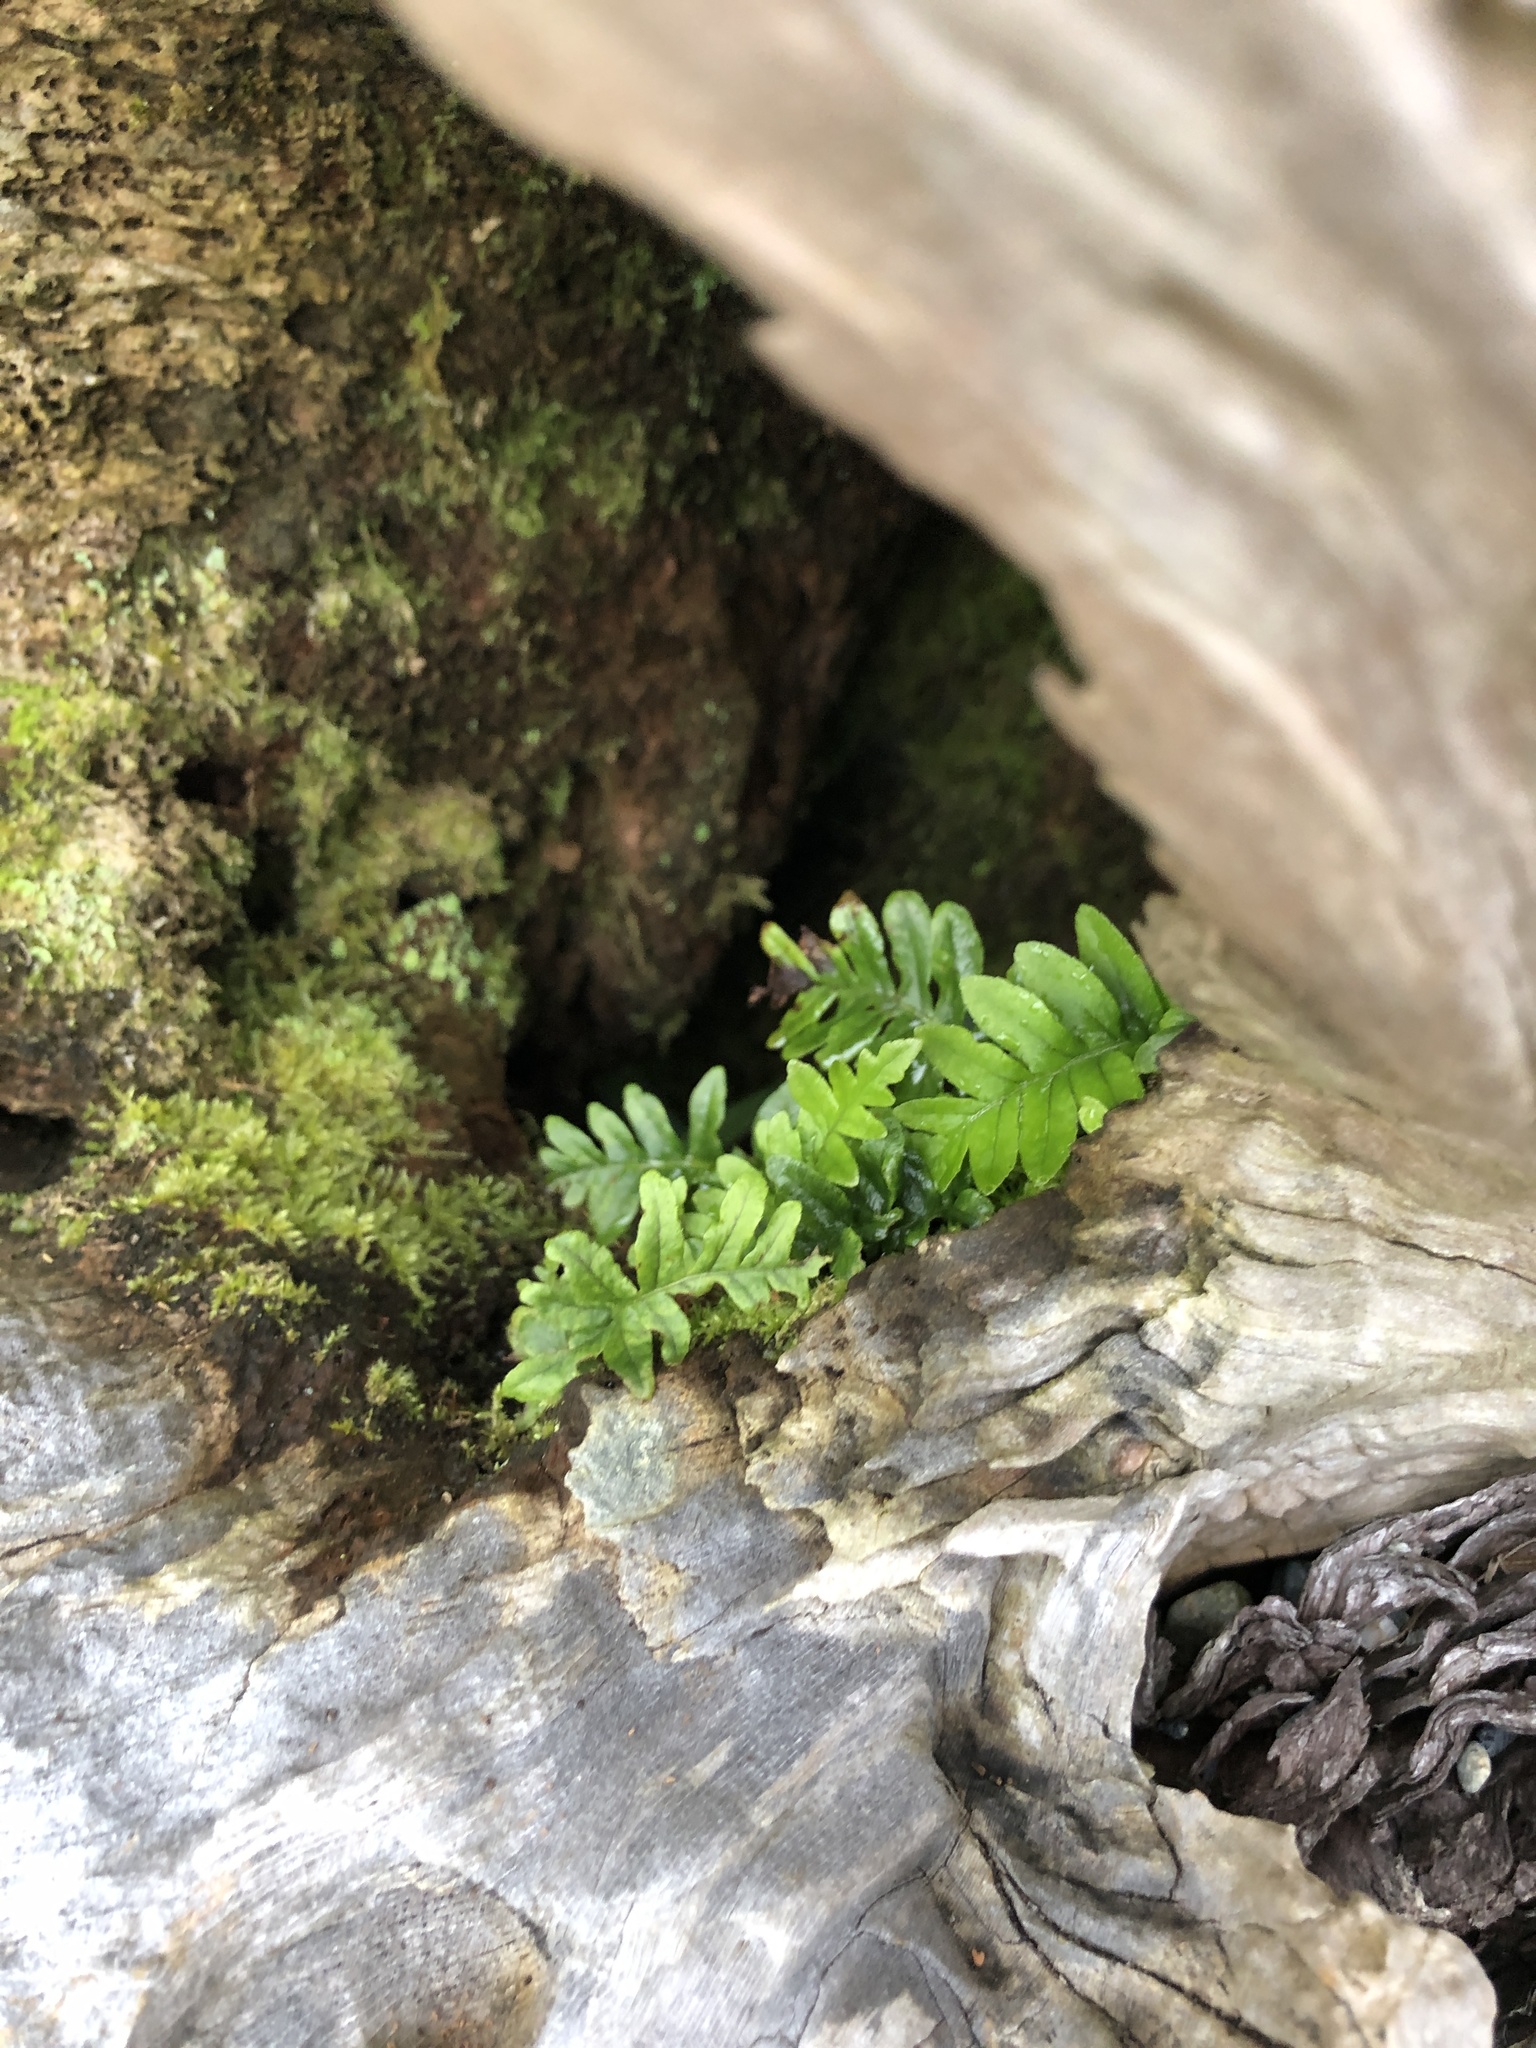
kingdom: Plantae
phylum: Tracheophyta
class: Polypodiopsida
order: Polypodiales
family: Polypodiaceae
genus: Polypodium
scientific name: Polypodium glycyrrhiza
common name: Licorice fern
